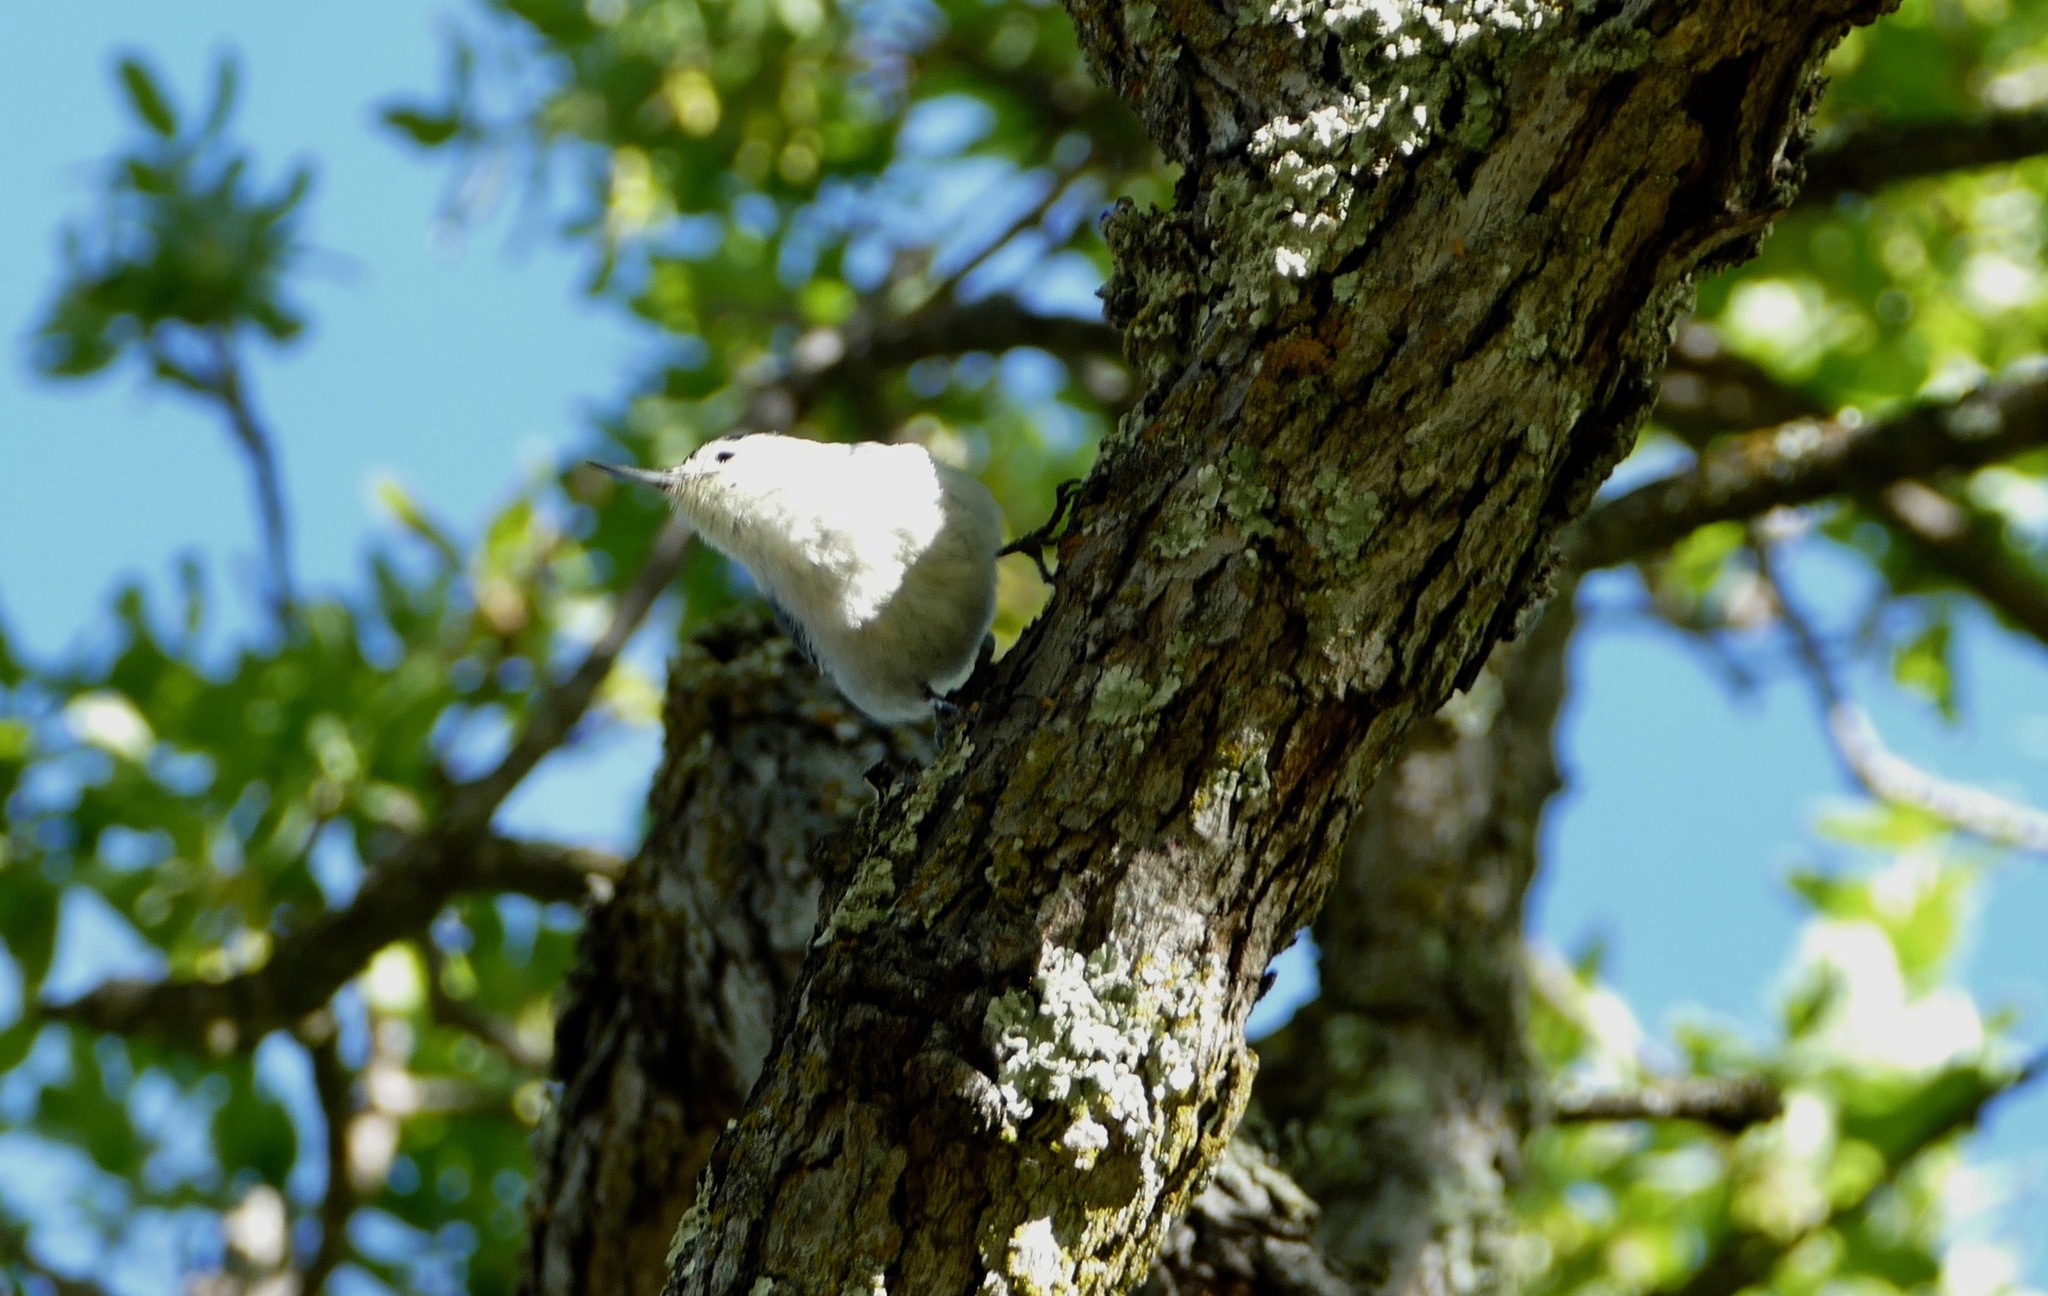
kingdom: Animalia
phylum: Chordata
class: Aves
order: Passeriformes
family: Sittidae
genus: Sitta
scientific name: Sitta carolinensis
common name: White-breasted nuthatch
